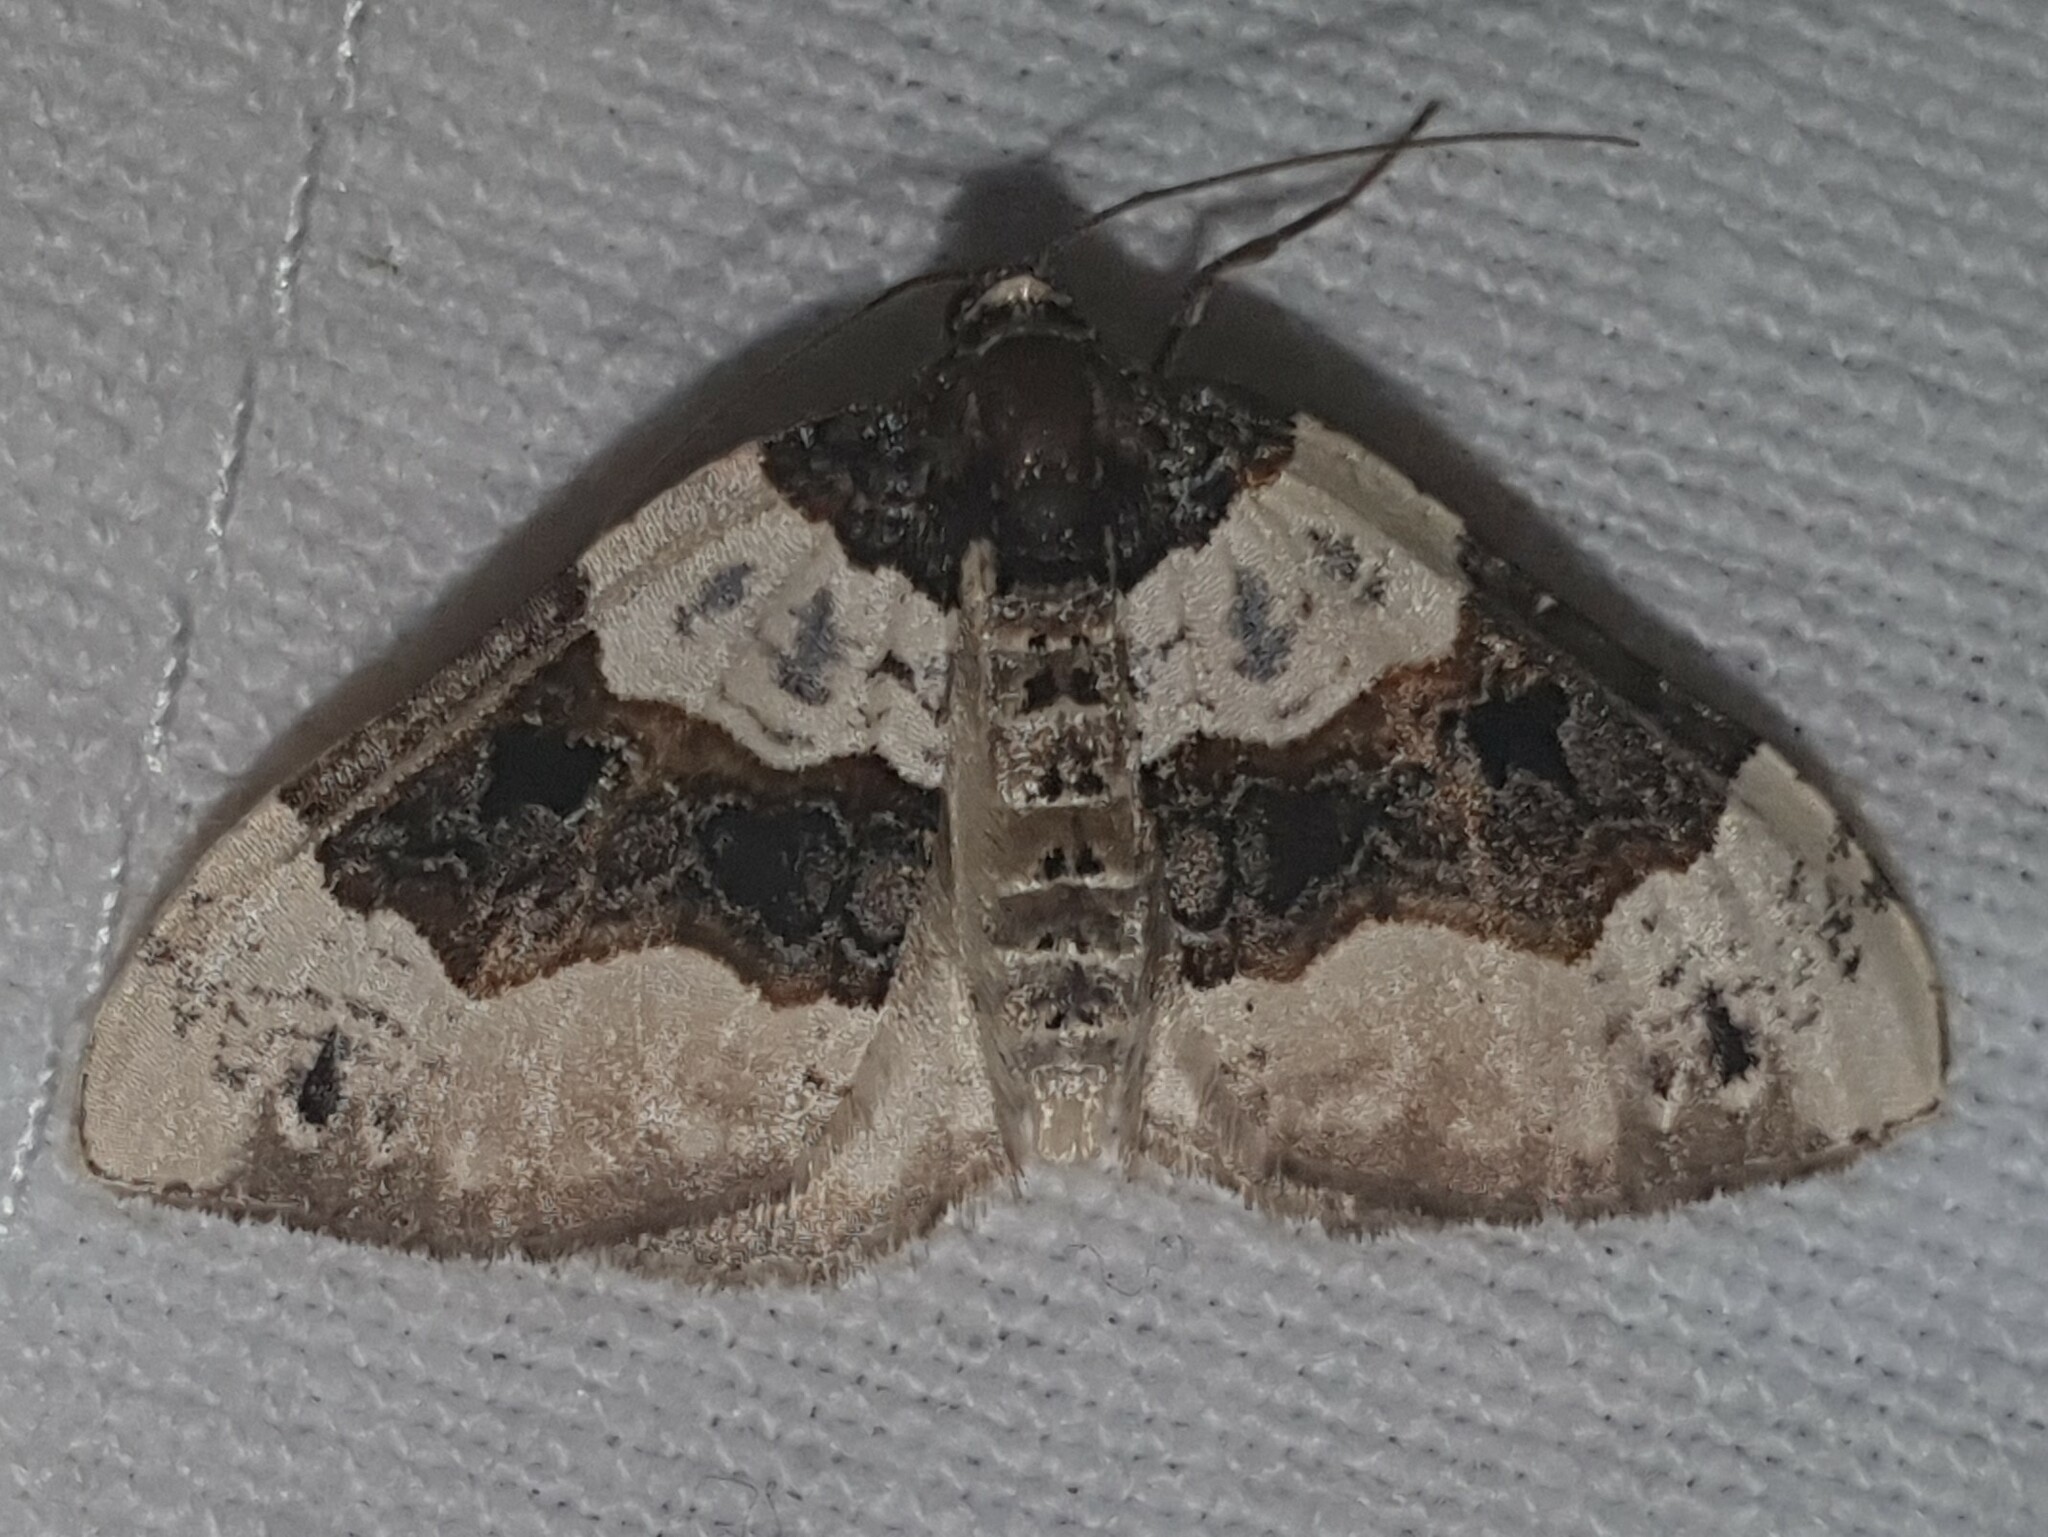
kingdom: Animalia
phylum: Arthropoda
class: Insecta
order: Lepidoptera
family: Geometridae
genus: Cosmorhoe
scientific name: Cosmorhoe ocellata
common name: Purple bar
